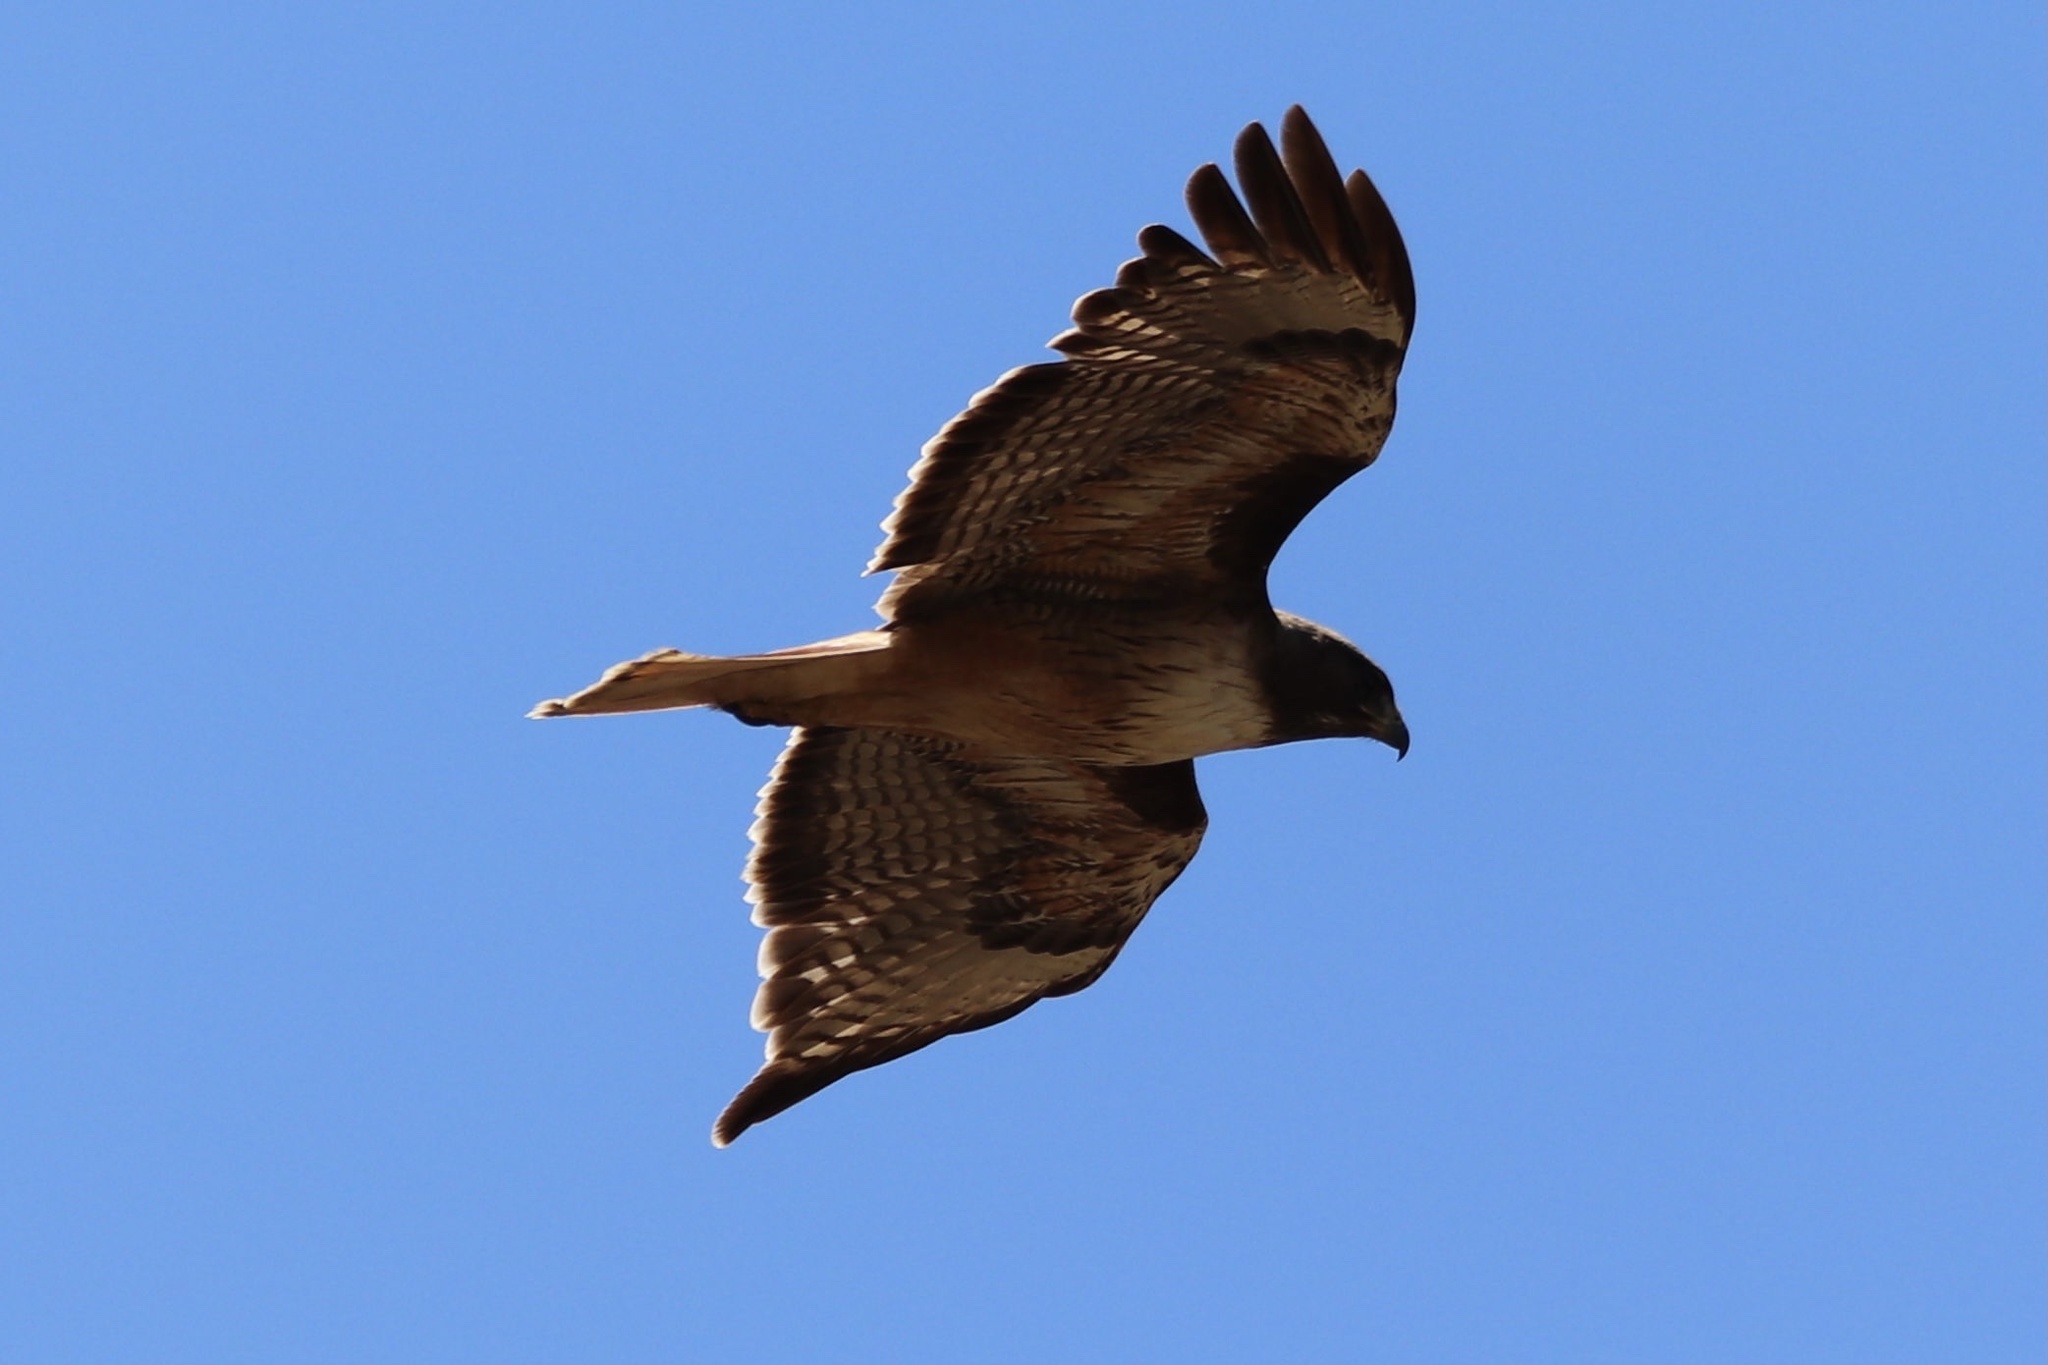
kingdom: Animalia
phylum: Chordata
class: Aves
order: Accipitriformes
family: Accipitridae
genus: Buteo
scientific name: Buteo jamaicensis
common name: Red-tailed hawk
